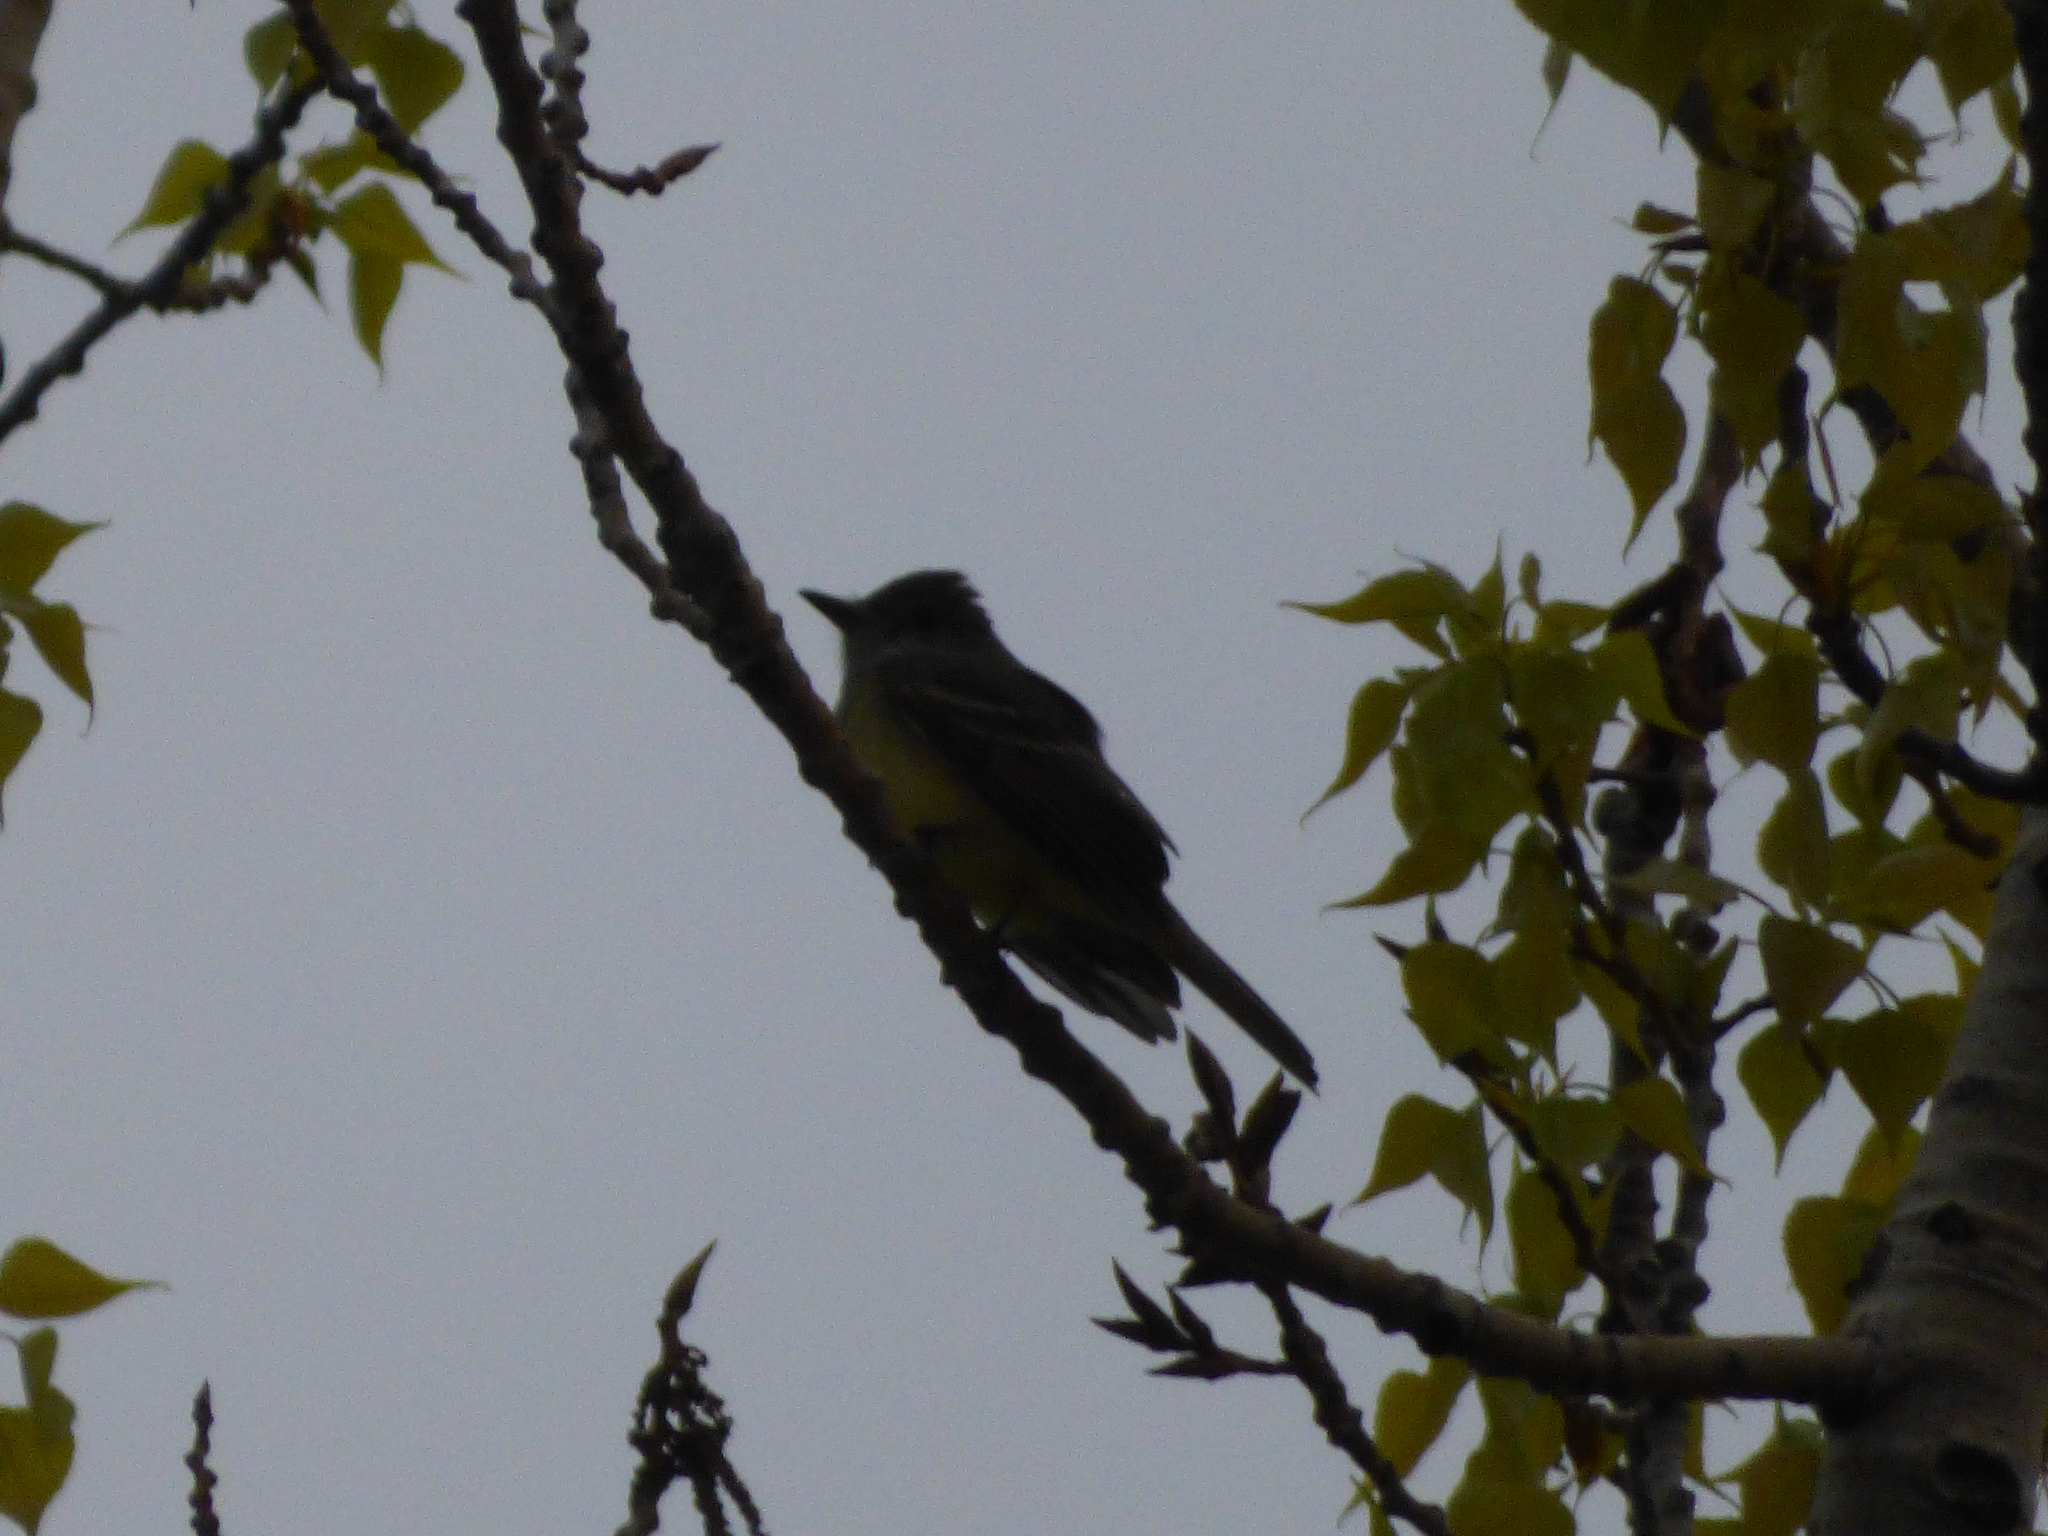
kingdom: Animalia
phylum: Chordata
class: Aves
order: Passeriformes
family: Tyrannidae
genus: Myiarchus
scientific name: Myiarchus crinitus
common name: Great crested flycatcher
